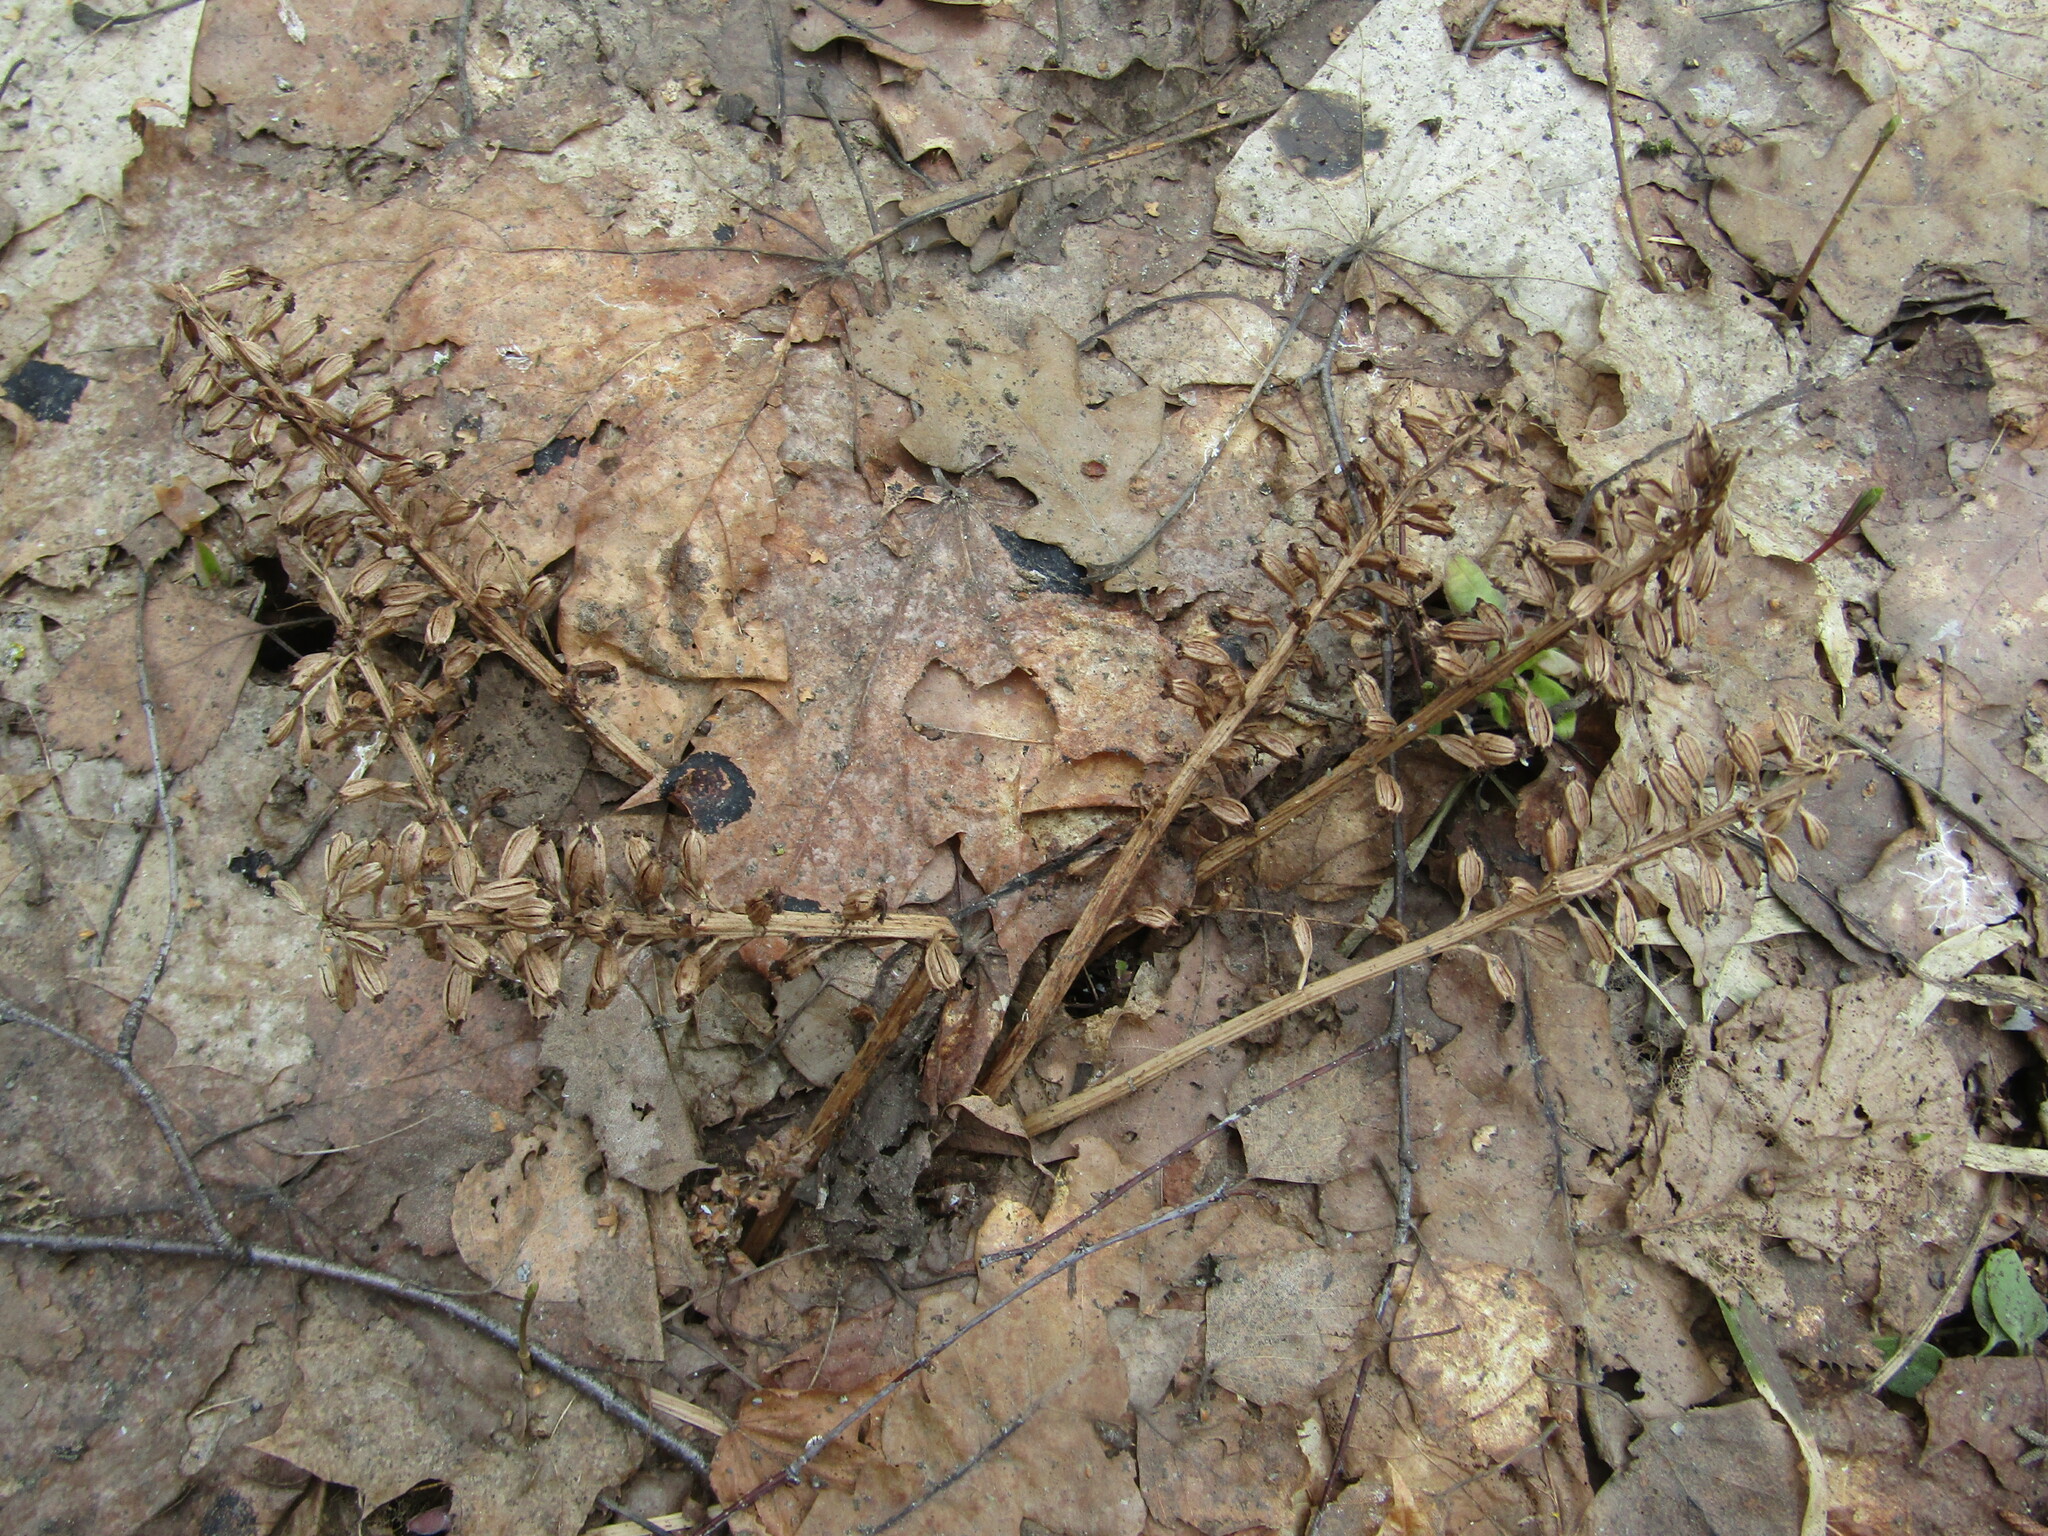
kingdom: Plantae
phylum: Tracheophyta
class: Liliopsida
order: Asparagales
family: Orchidaceae
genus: Neottia
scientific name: Neottia nidus-avis
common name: Bird's-nest orchid
